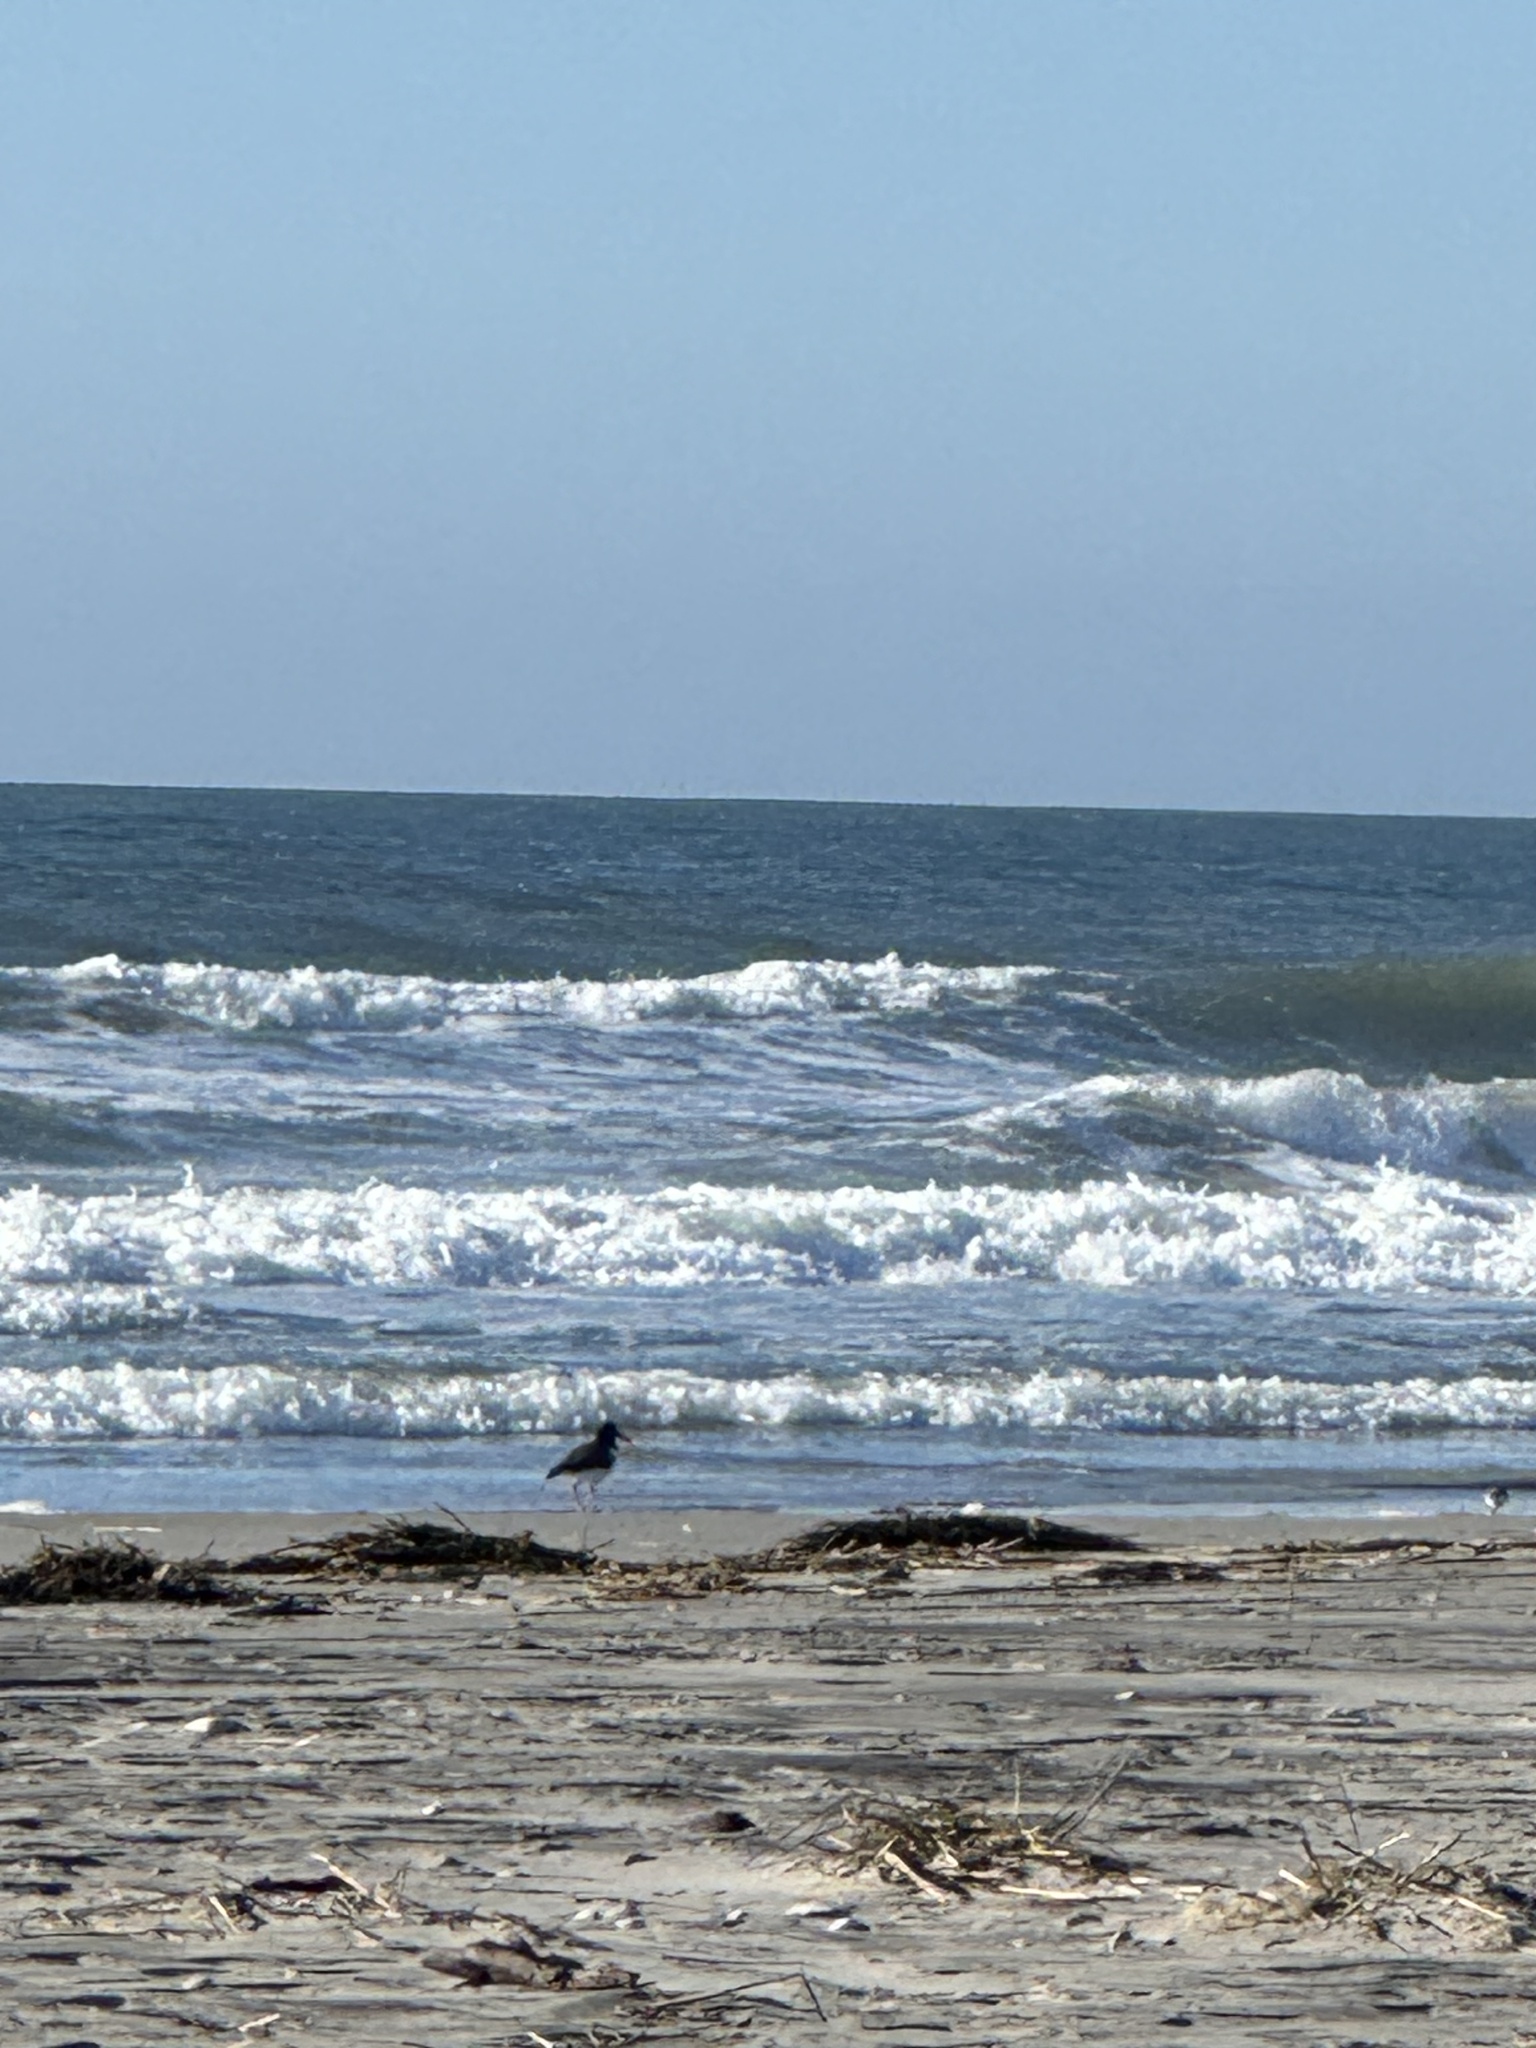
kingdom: Animalia
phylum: Chordata
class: Aves
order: Charadriiformes
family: Haematopodidae
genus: Haematopus
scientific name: Haematopus palliatus
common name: American oystercatcher
